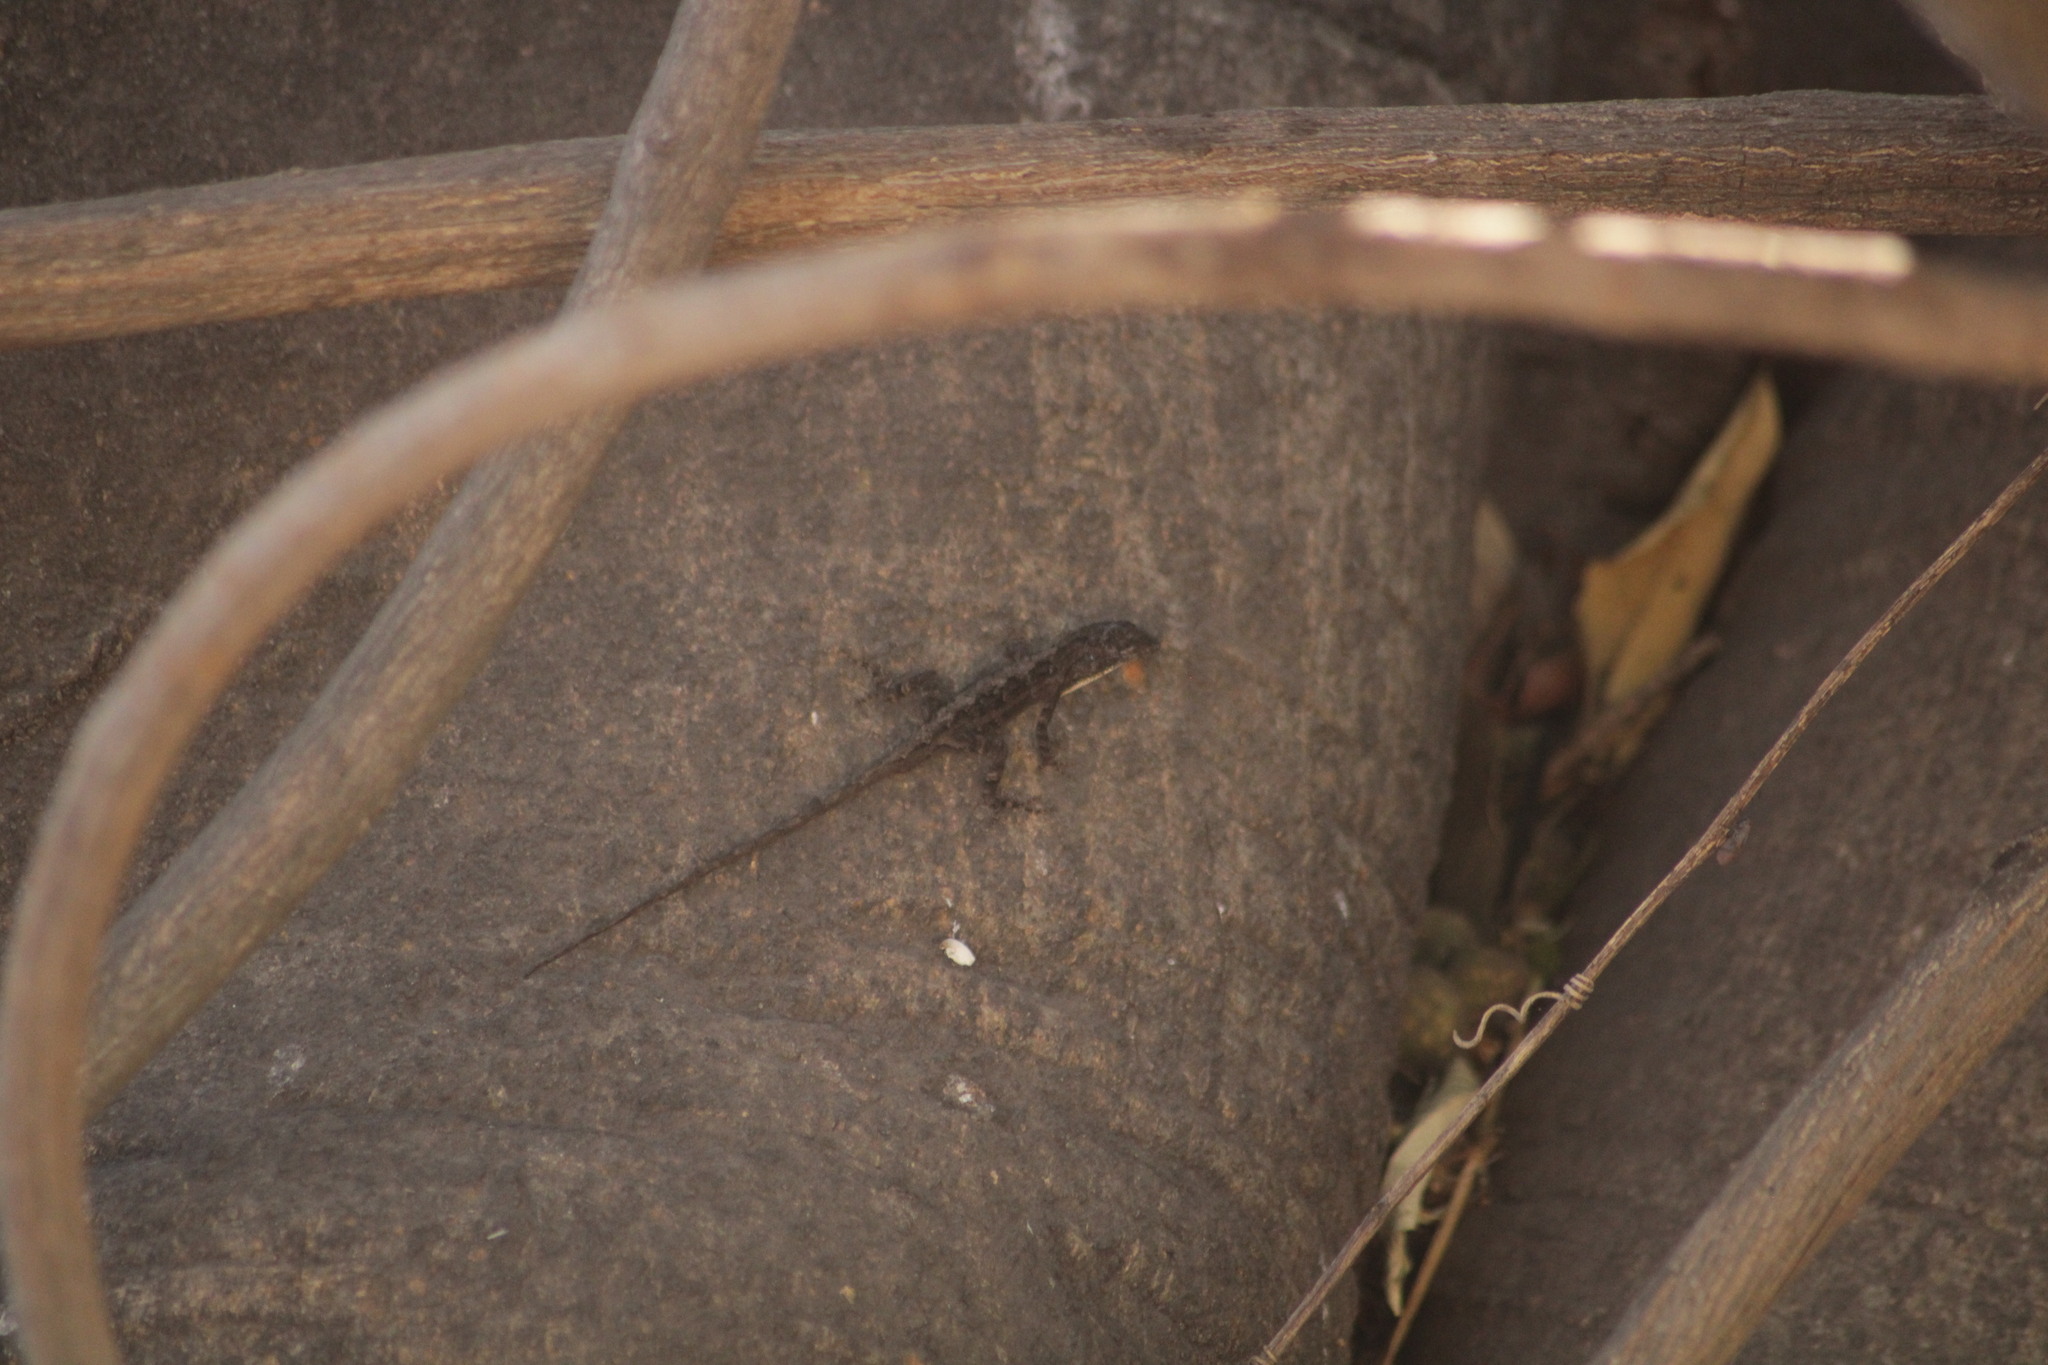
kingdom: Animalia
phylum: Chordata
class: Squamata
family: Dactyloidae
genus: Anolis
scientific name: Anolis nebulosus
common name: Clouded anole
